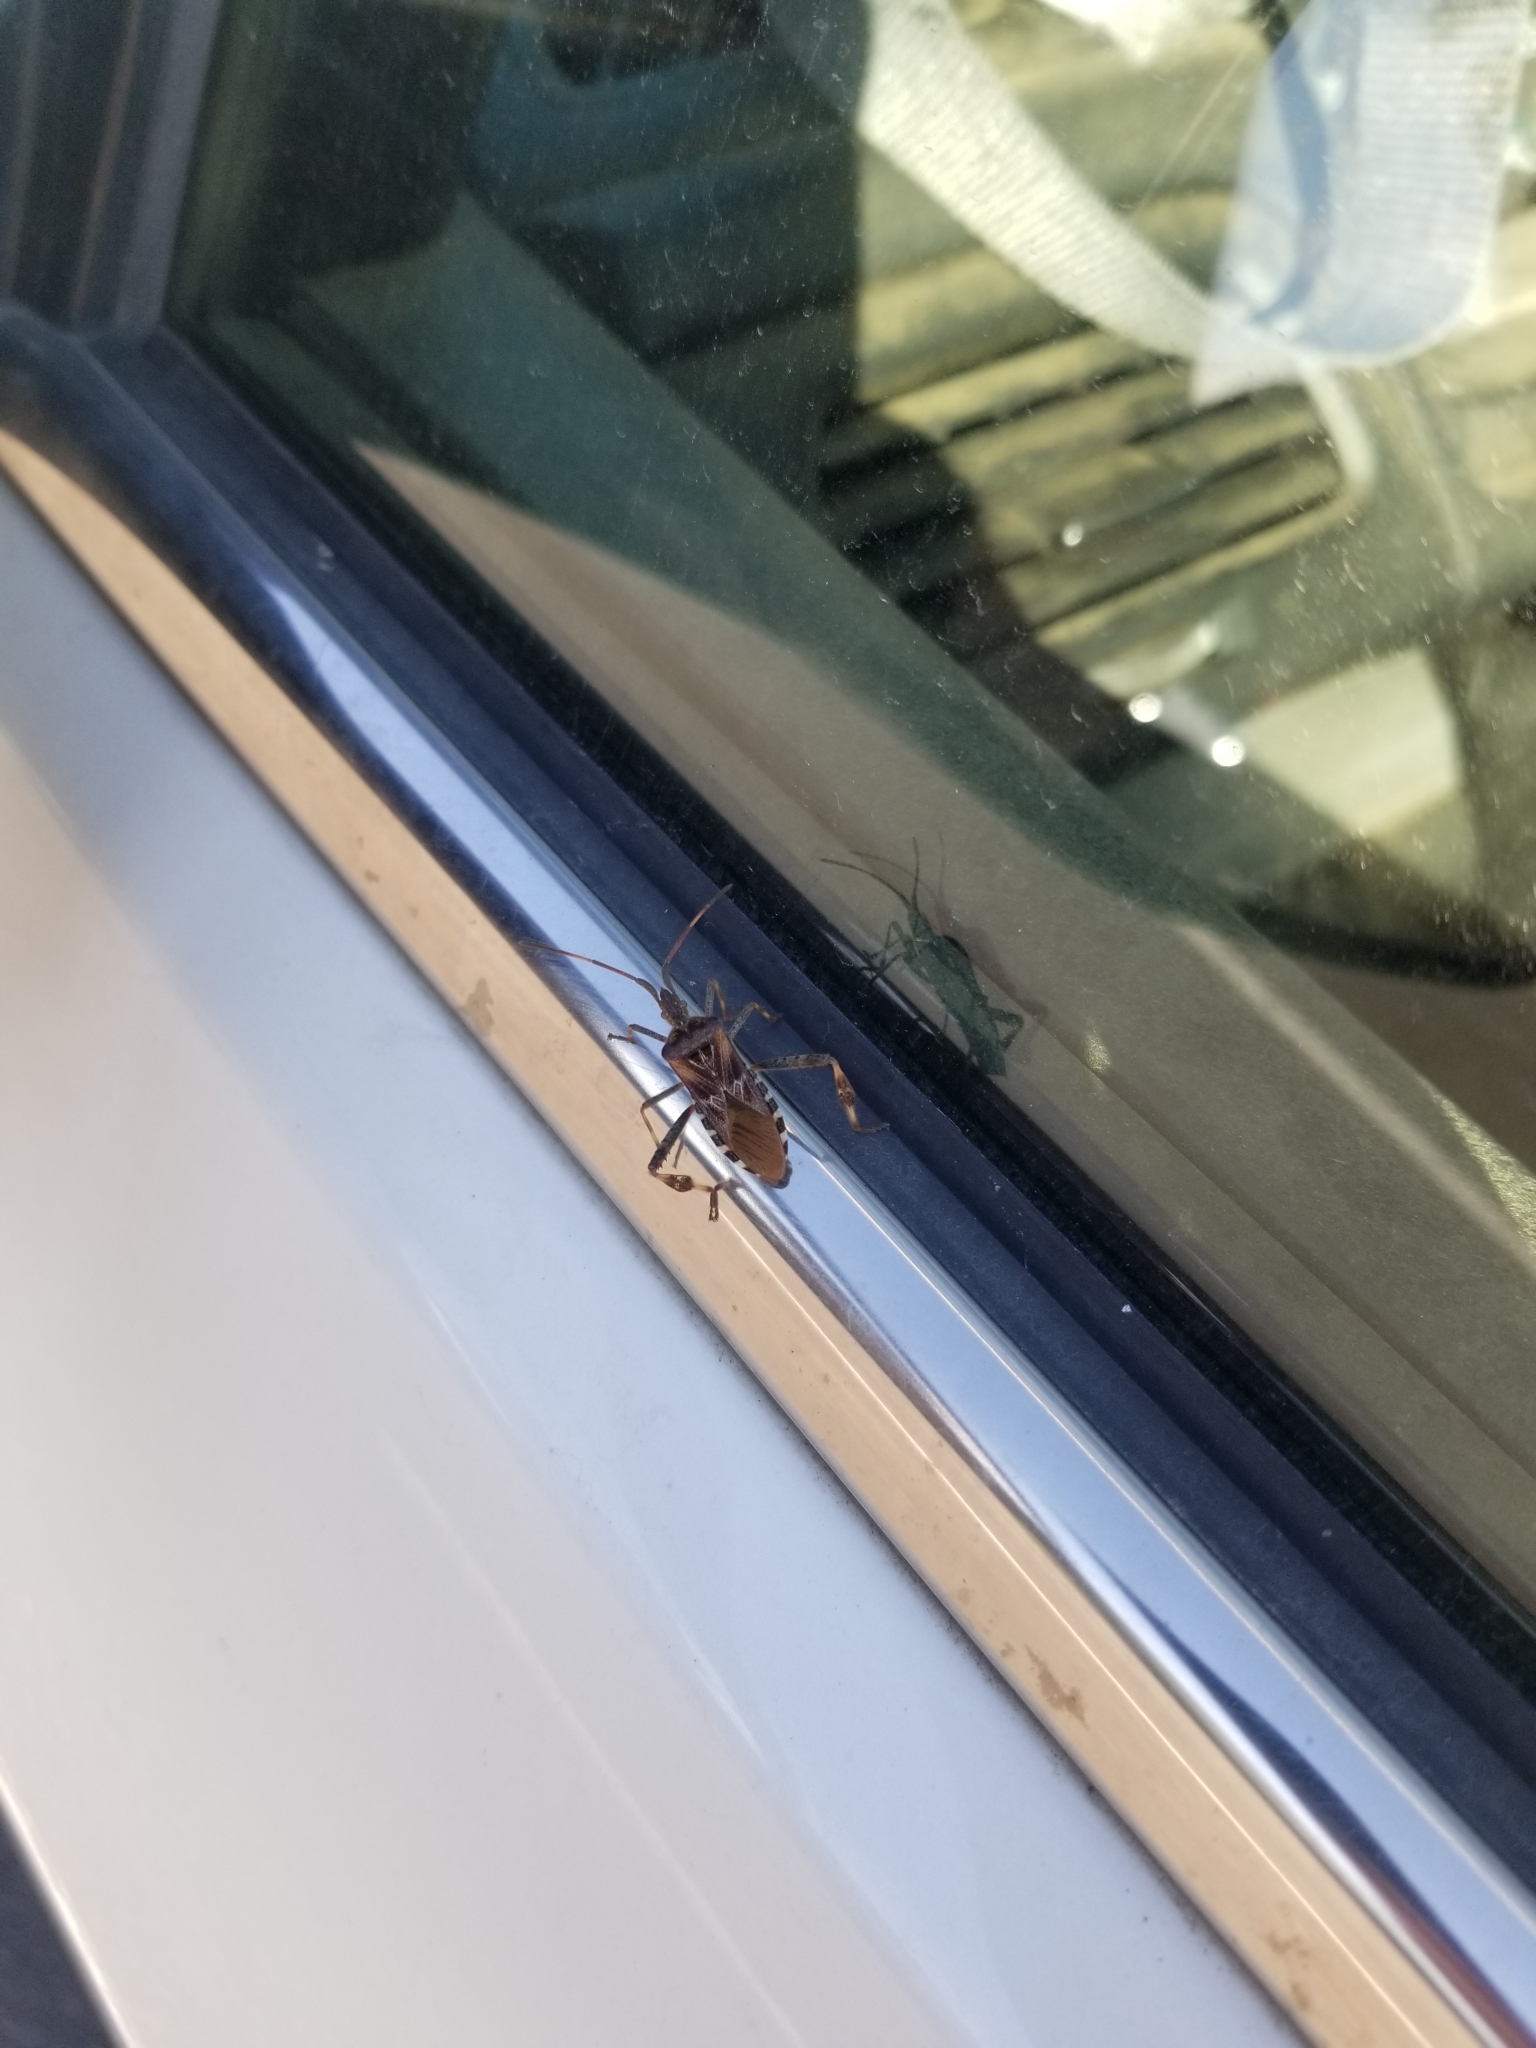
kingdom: Animalia
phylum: Arthropoda
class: Insecta
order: Hemiptera
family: Coreidae
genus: Leptoglossus
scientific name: Leptoglossus occidentalis
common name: Western conifer-seed bug
